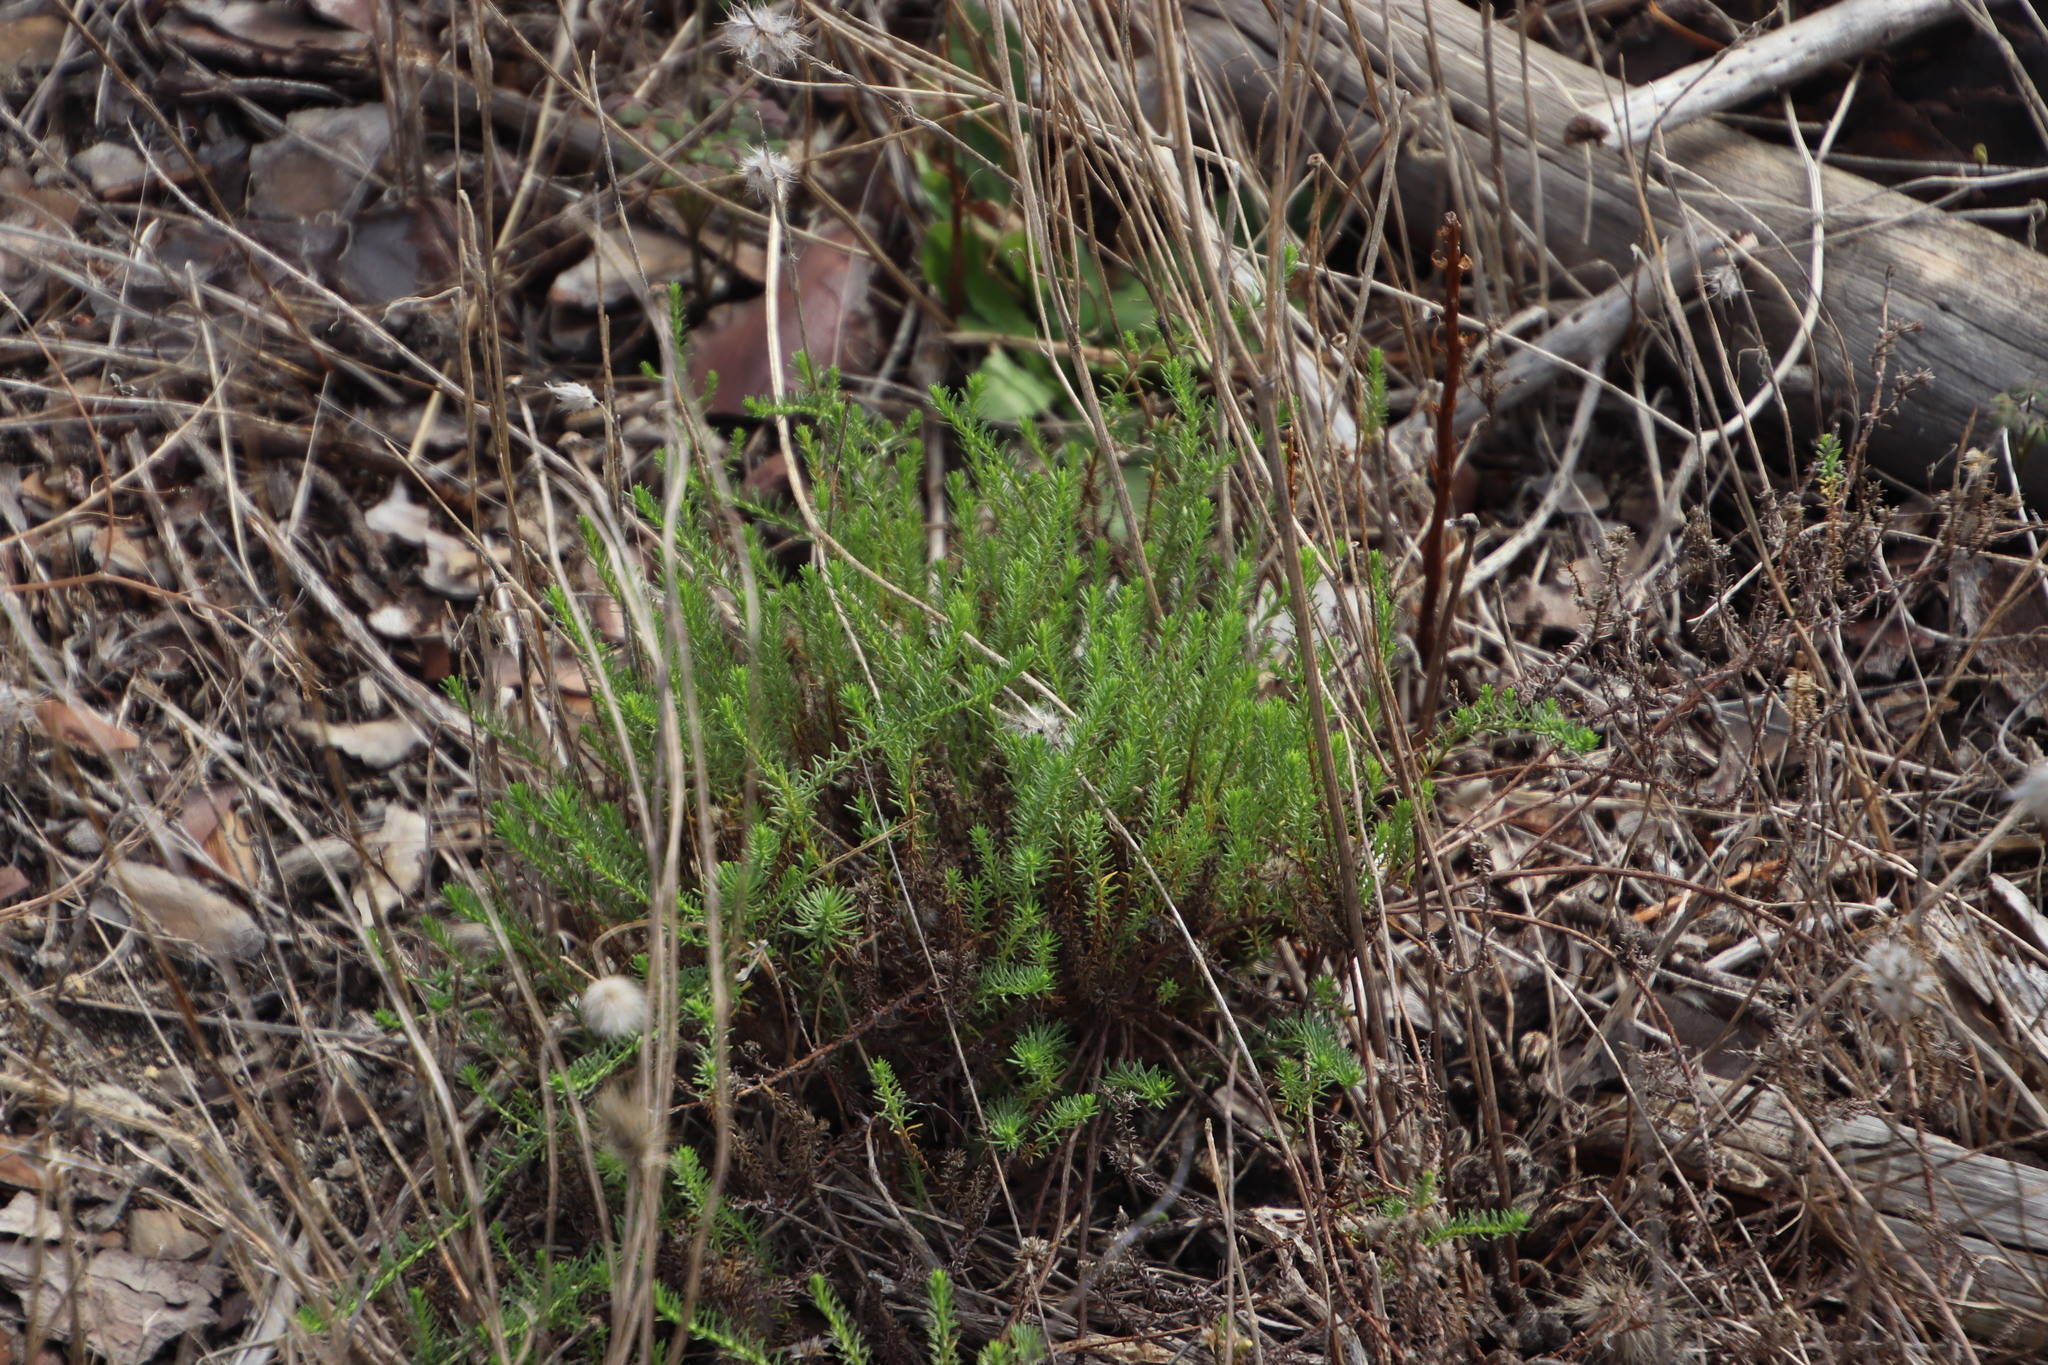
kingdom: Plantae
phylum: Tracheophyta
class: Magnoliopsida
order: Asterales
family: Asteraceae
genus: Helichrysum
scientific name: Helichrysum niveum
